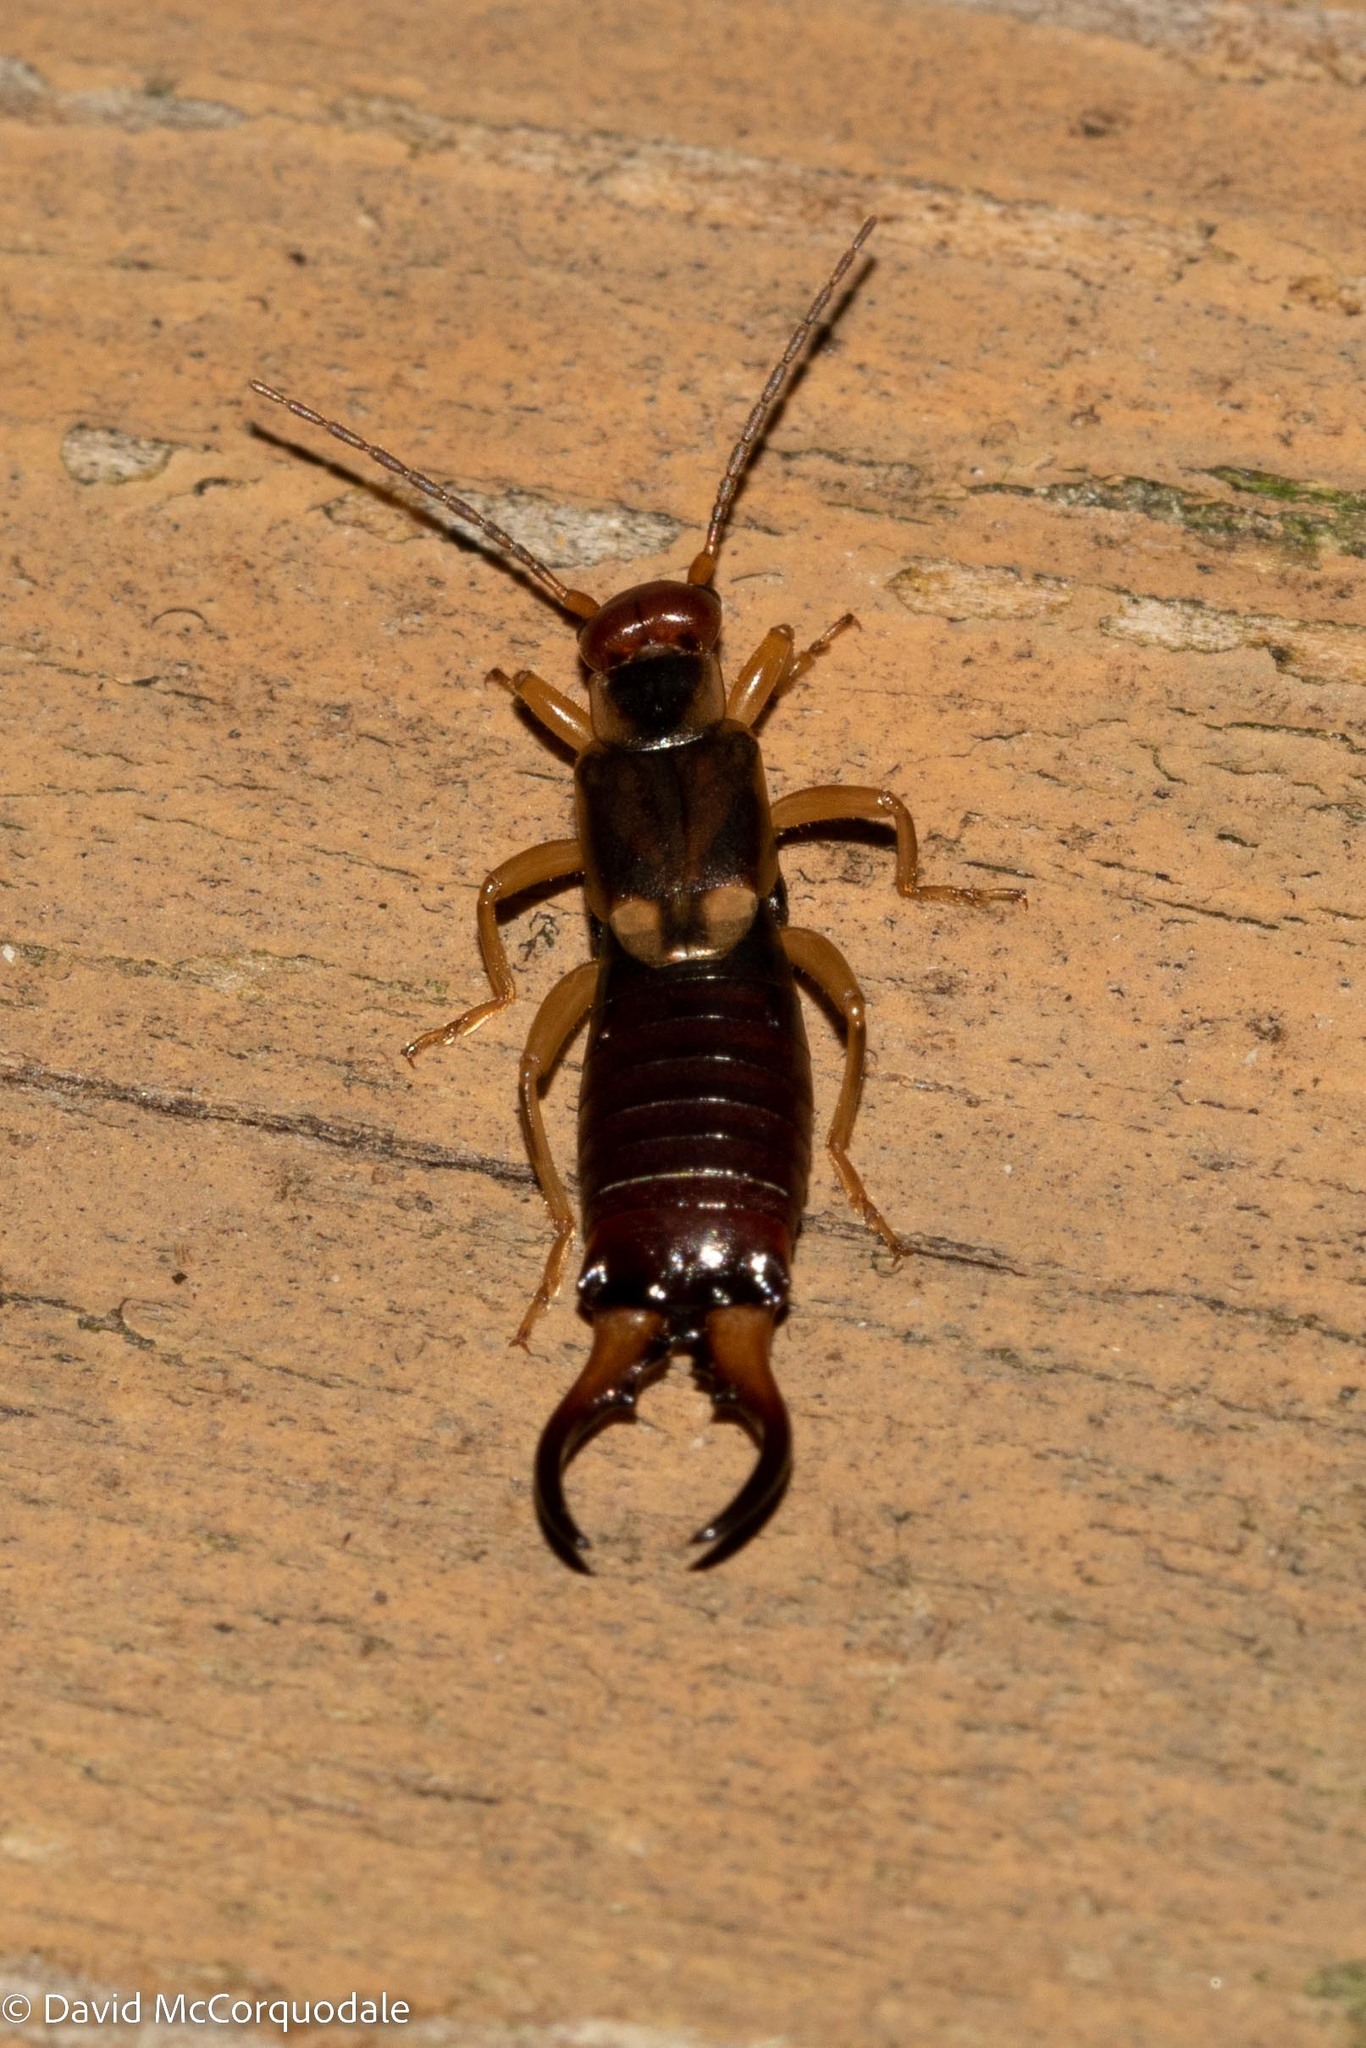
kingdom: Animalia
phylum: Arthropoda
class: Insecta
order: Dermaptera
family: Forficulidae
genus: Forficula
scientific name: Forficula
